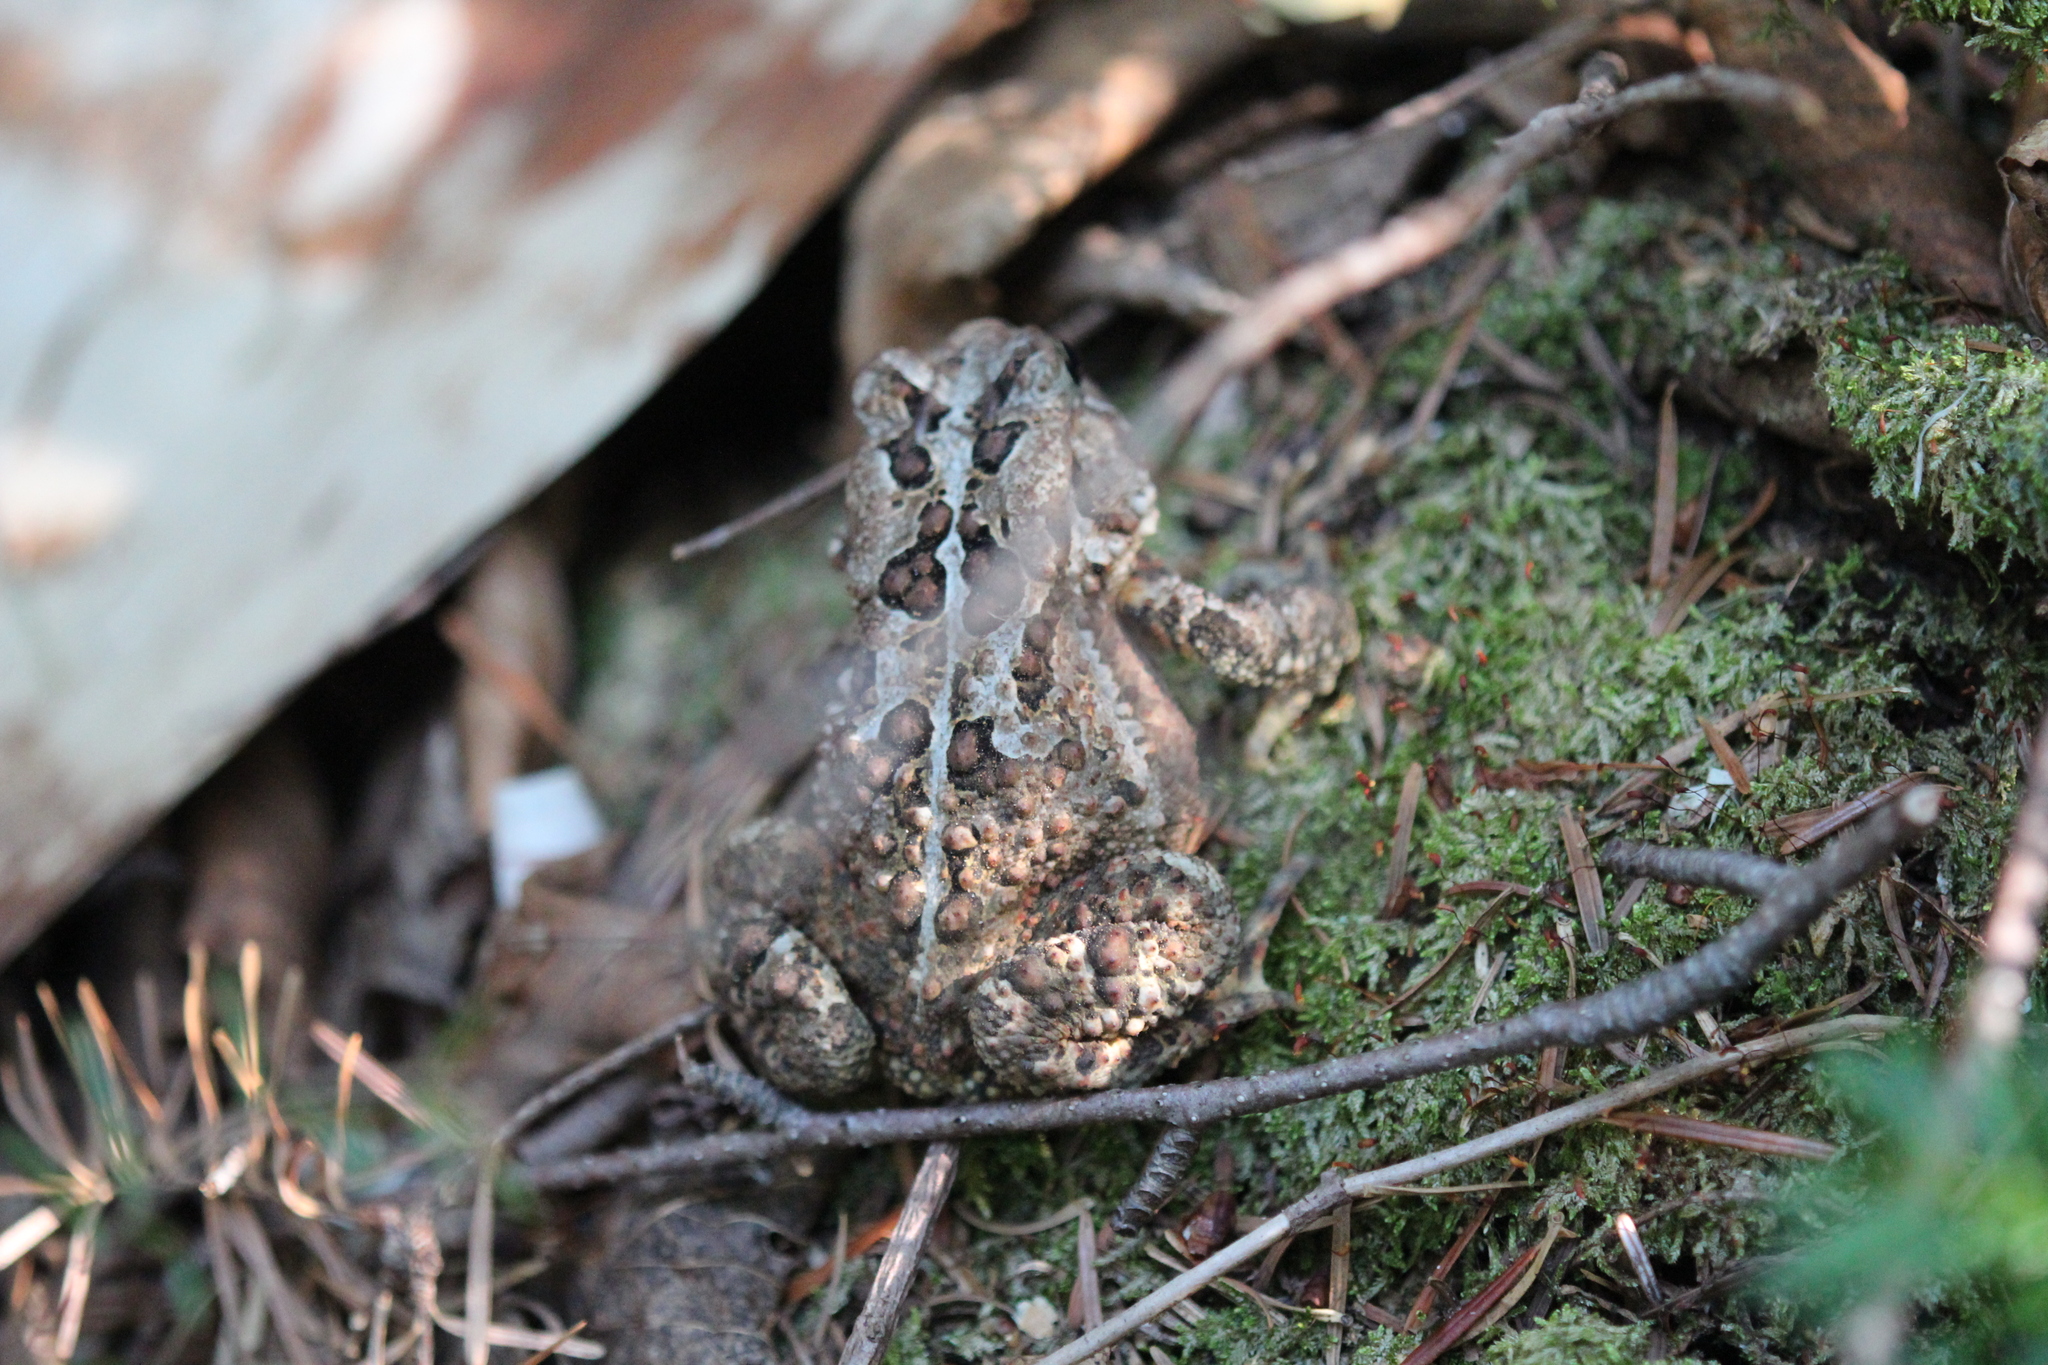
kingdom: Animalia
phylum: Chordata
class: Amphibia
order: Anura
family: Bufonidae
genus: Anaxyrus
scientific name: Anaxyrus americanus
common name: American toad
